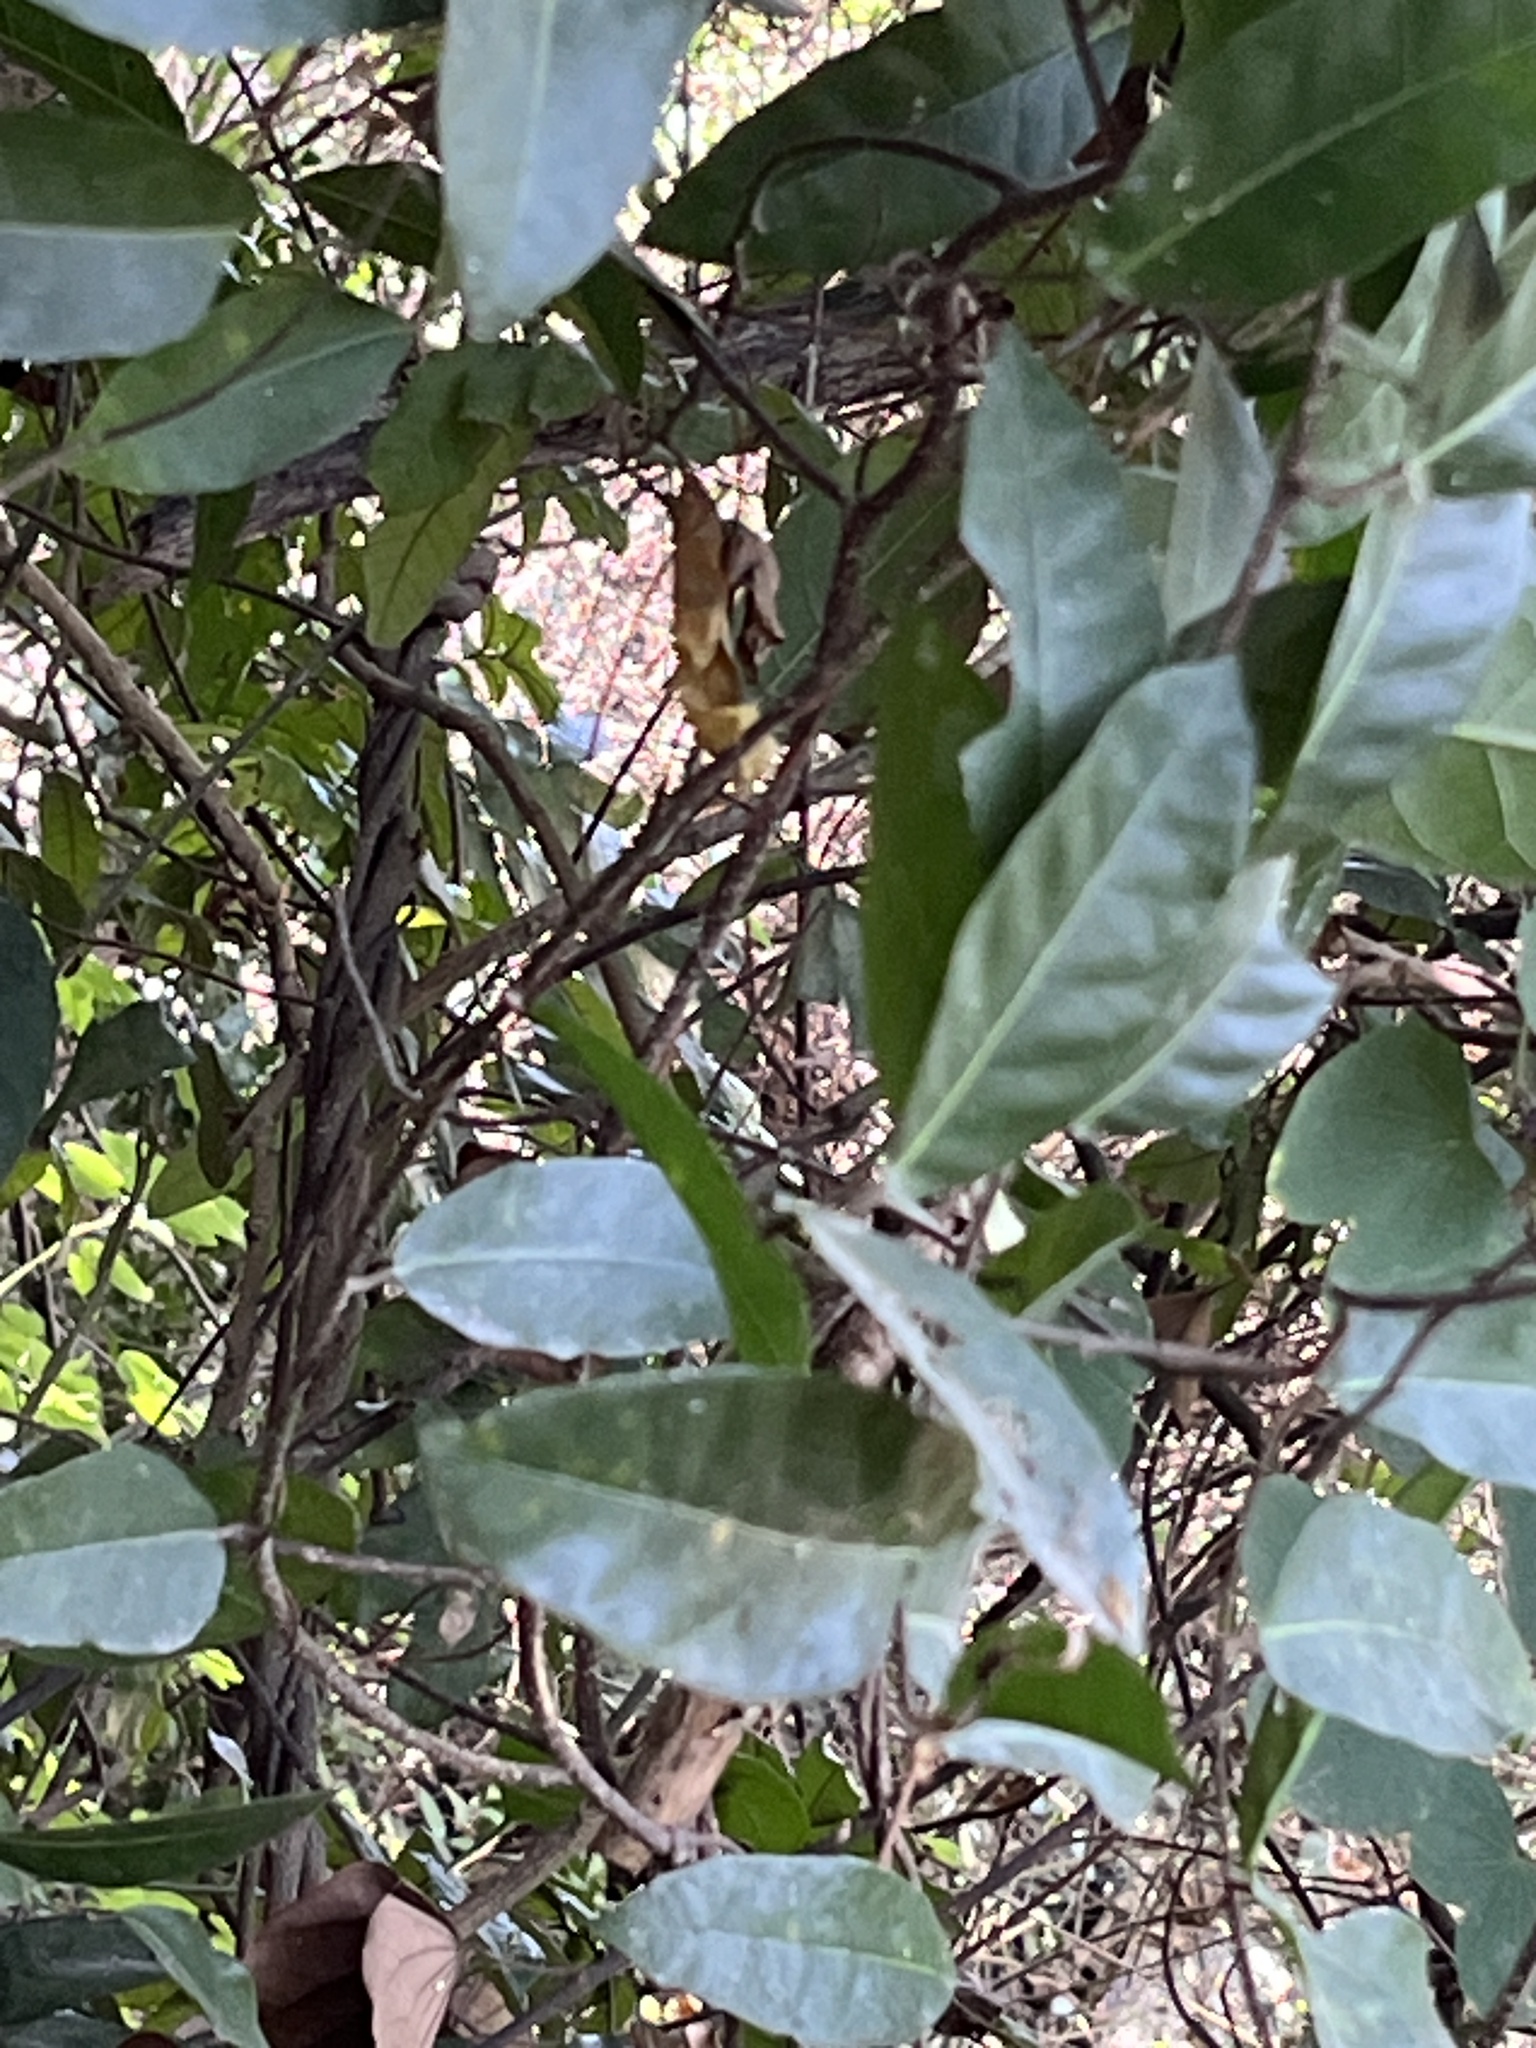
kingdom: Plantae
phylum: Tracheophyta
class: Magnoliopsida
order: Rosales
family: Moraceae
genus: Malaisia
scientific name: Malaisia scandens
